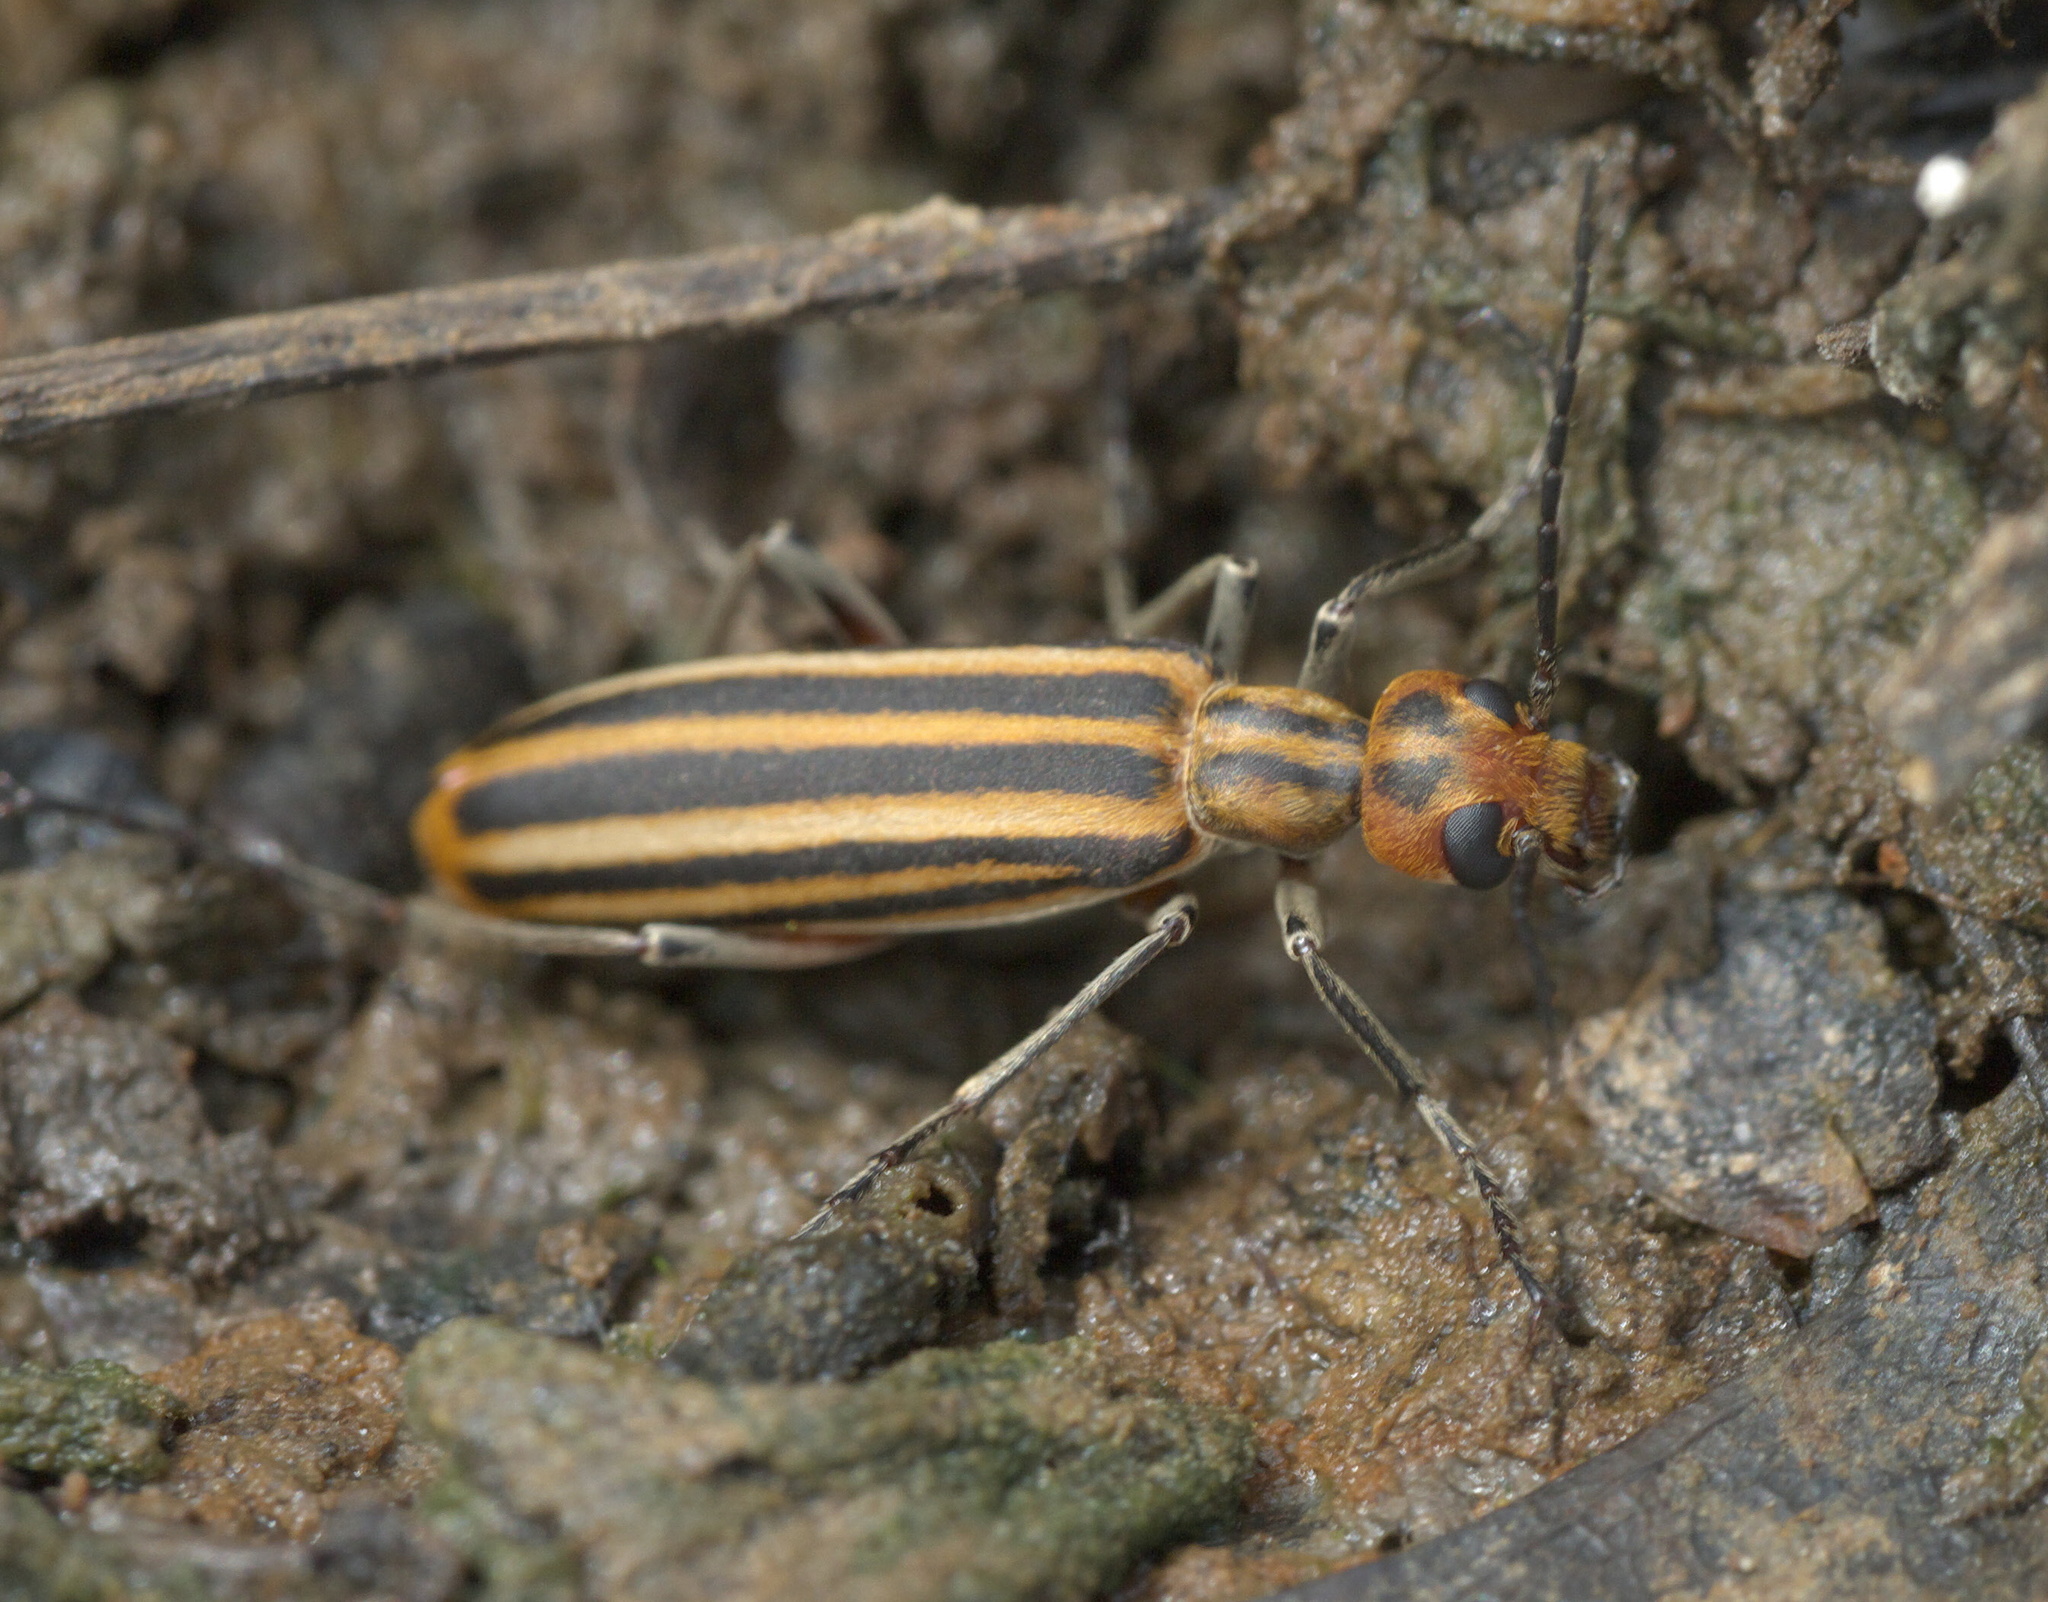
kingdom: Animalia
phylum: Arthropoda
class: Insecta
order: Coleoptera
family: Meloidae
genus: Epicauta
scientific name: Epicauta vittata
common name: Old-fashioned potato beetle
